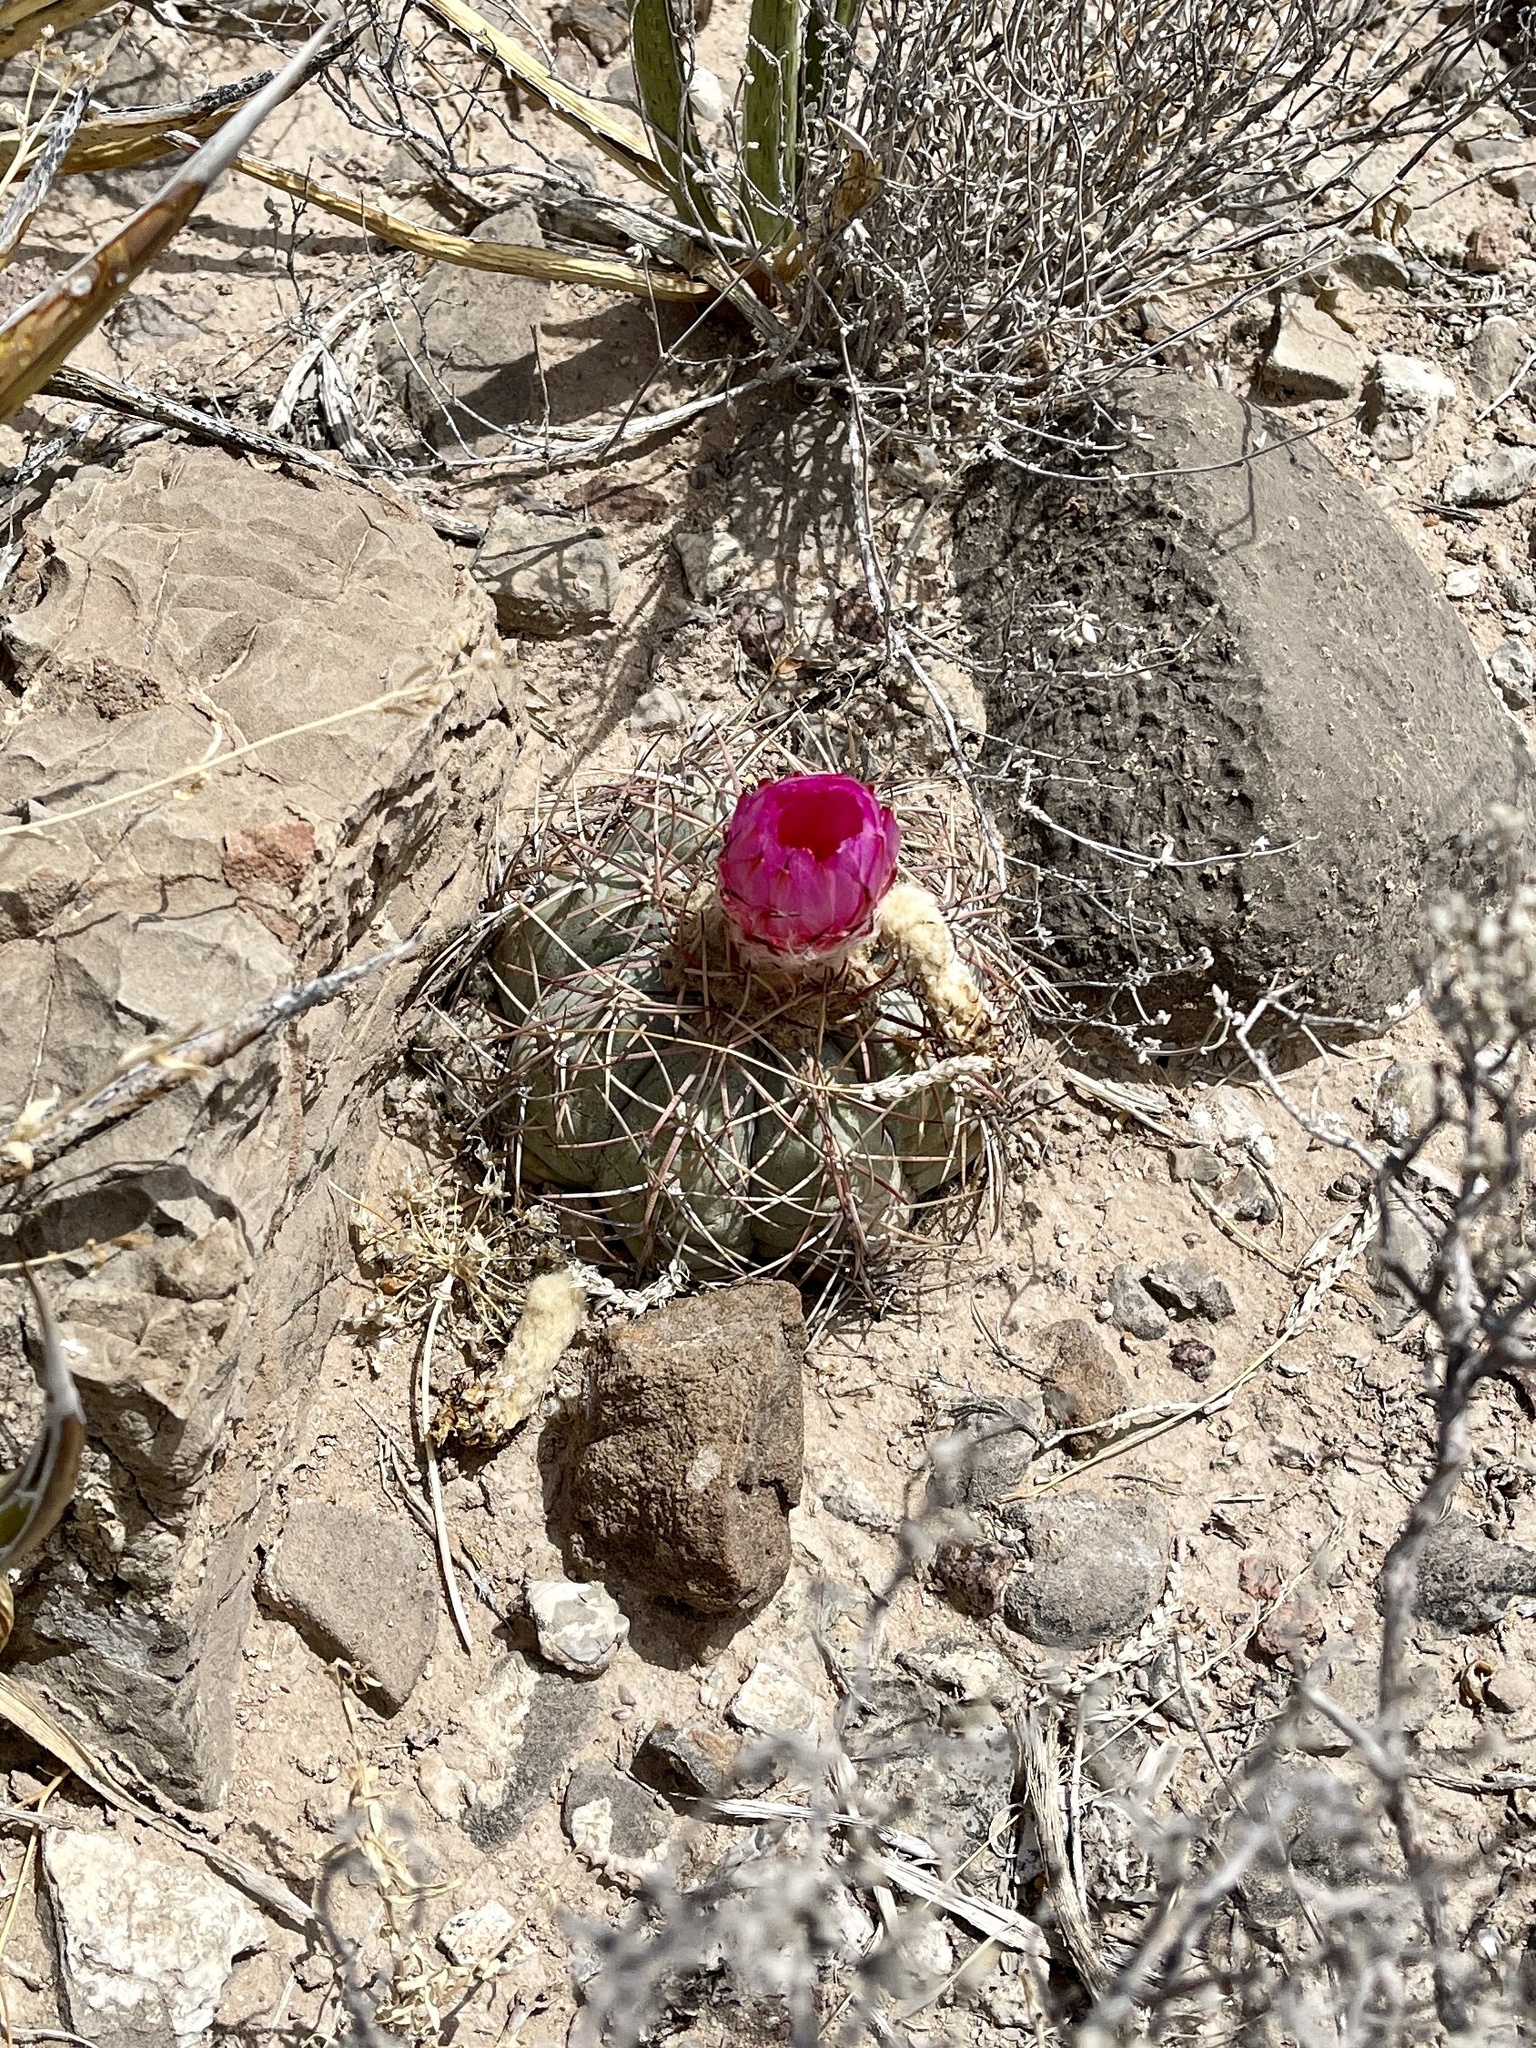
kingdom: Plantae
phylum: Tracheophyta
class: Magnoliopsida
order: Caryophyllales
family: Cactaceae
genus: Echinocactus
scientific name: Echinocactus horizonthalonius
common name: Devilshead
